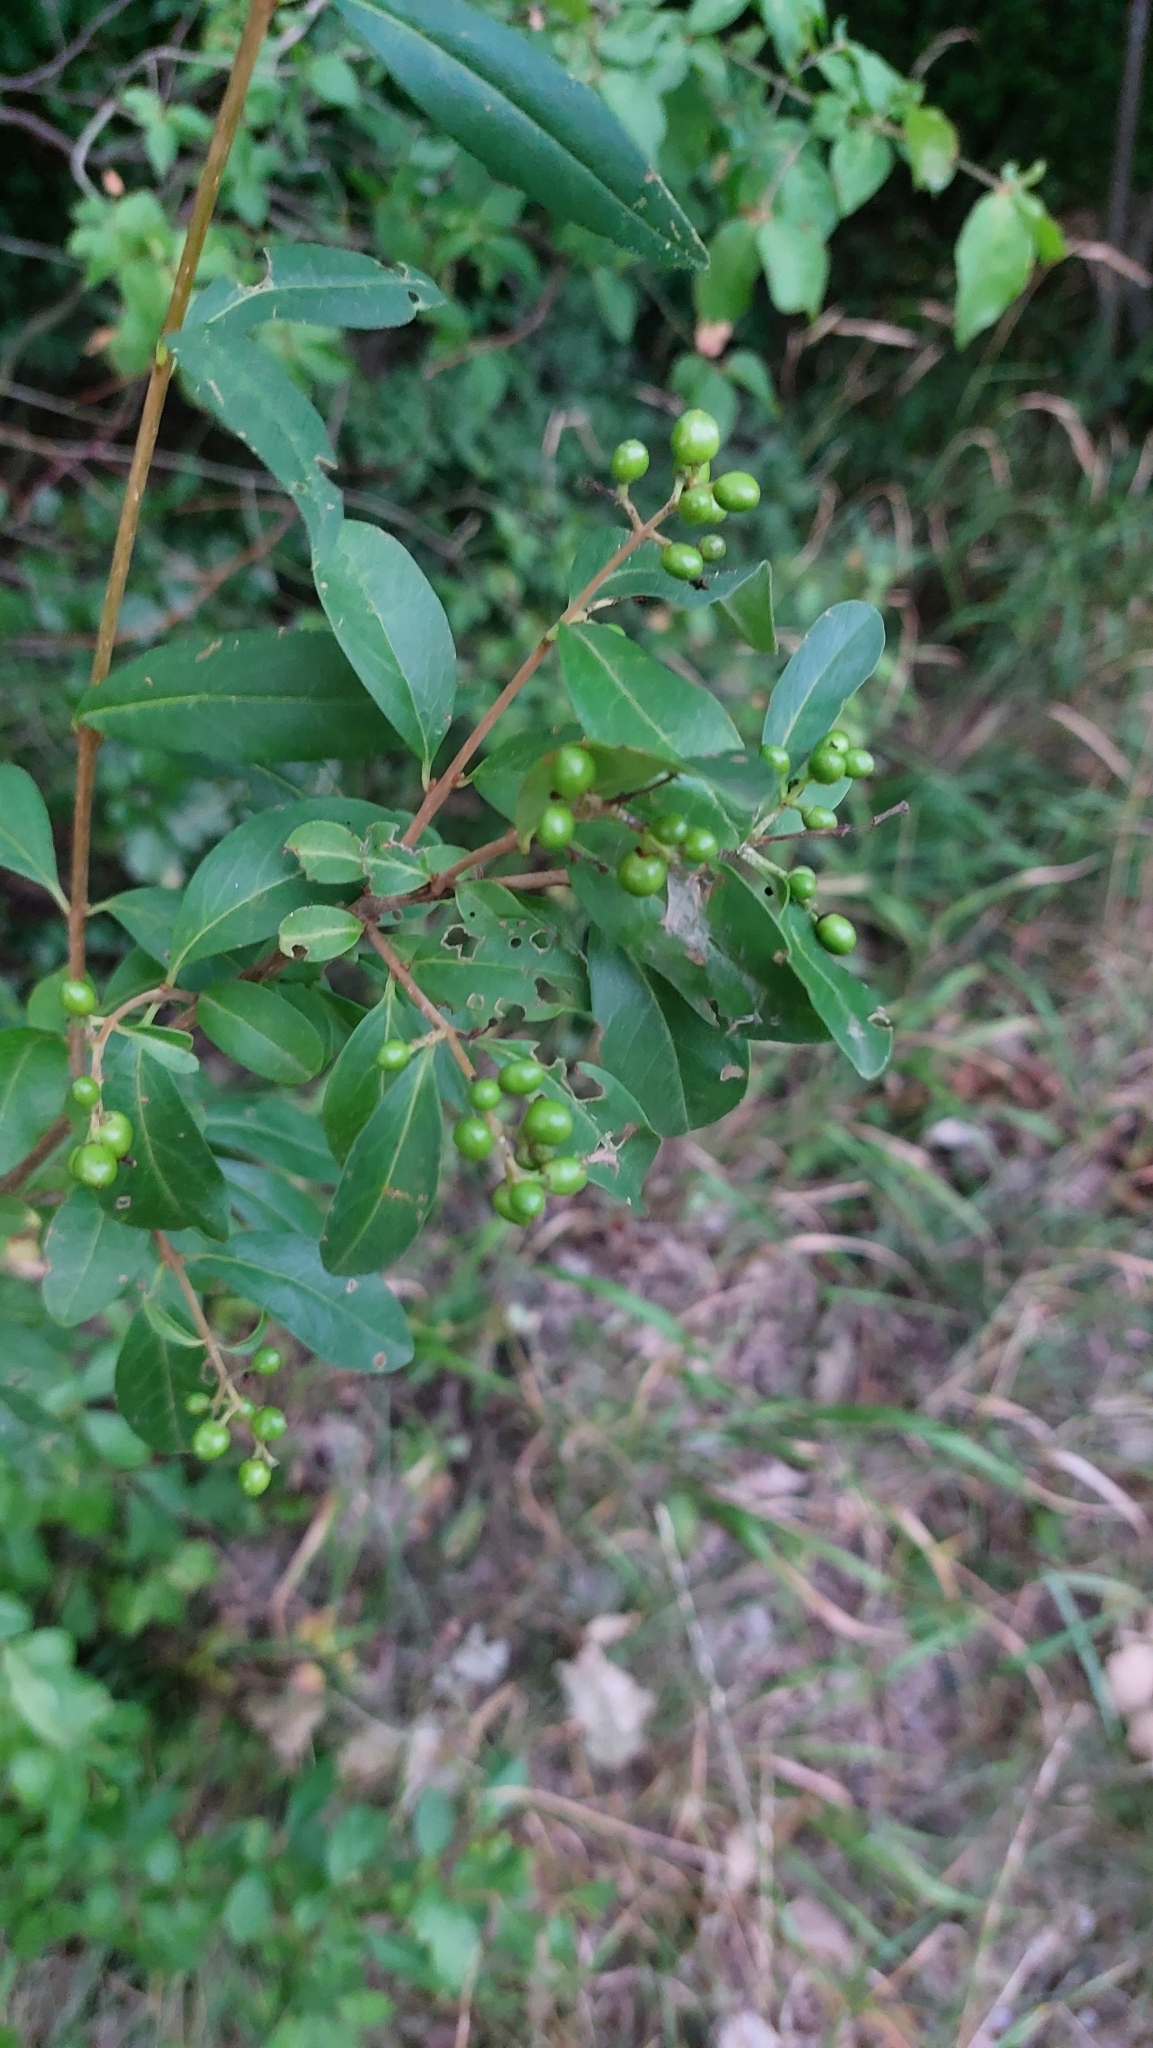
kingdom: Plantae
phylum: Tracheophyta
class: Magnoliopsida
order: Lamiales
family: Oleaceae
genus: Ligustrum
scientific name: Ligustrum vulgare
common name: Wild privet
